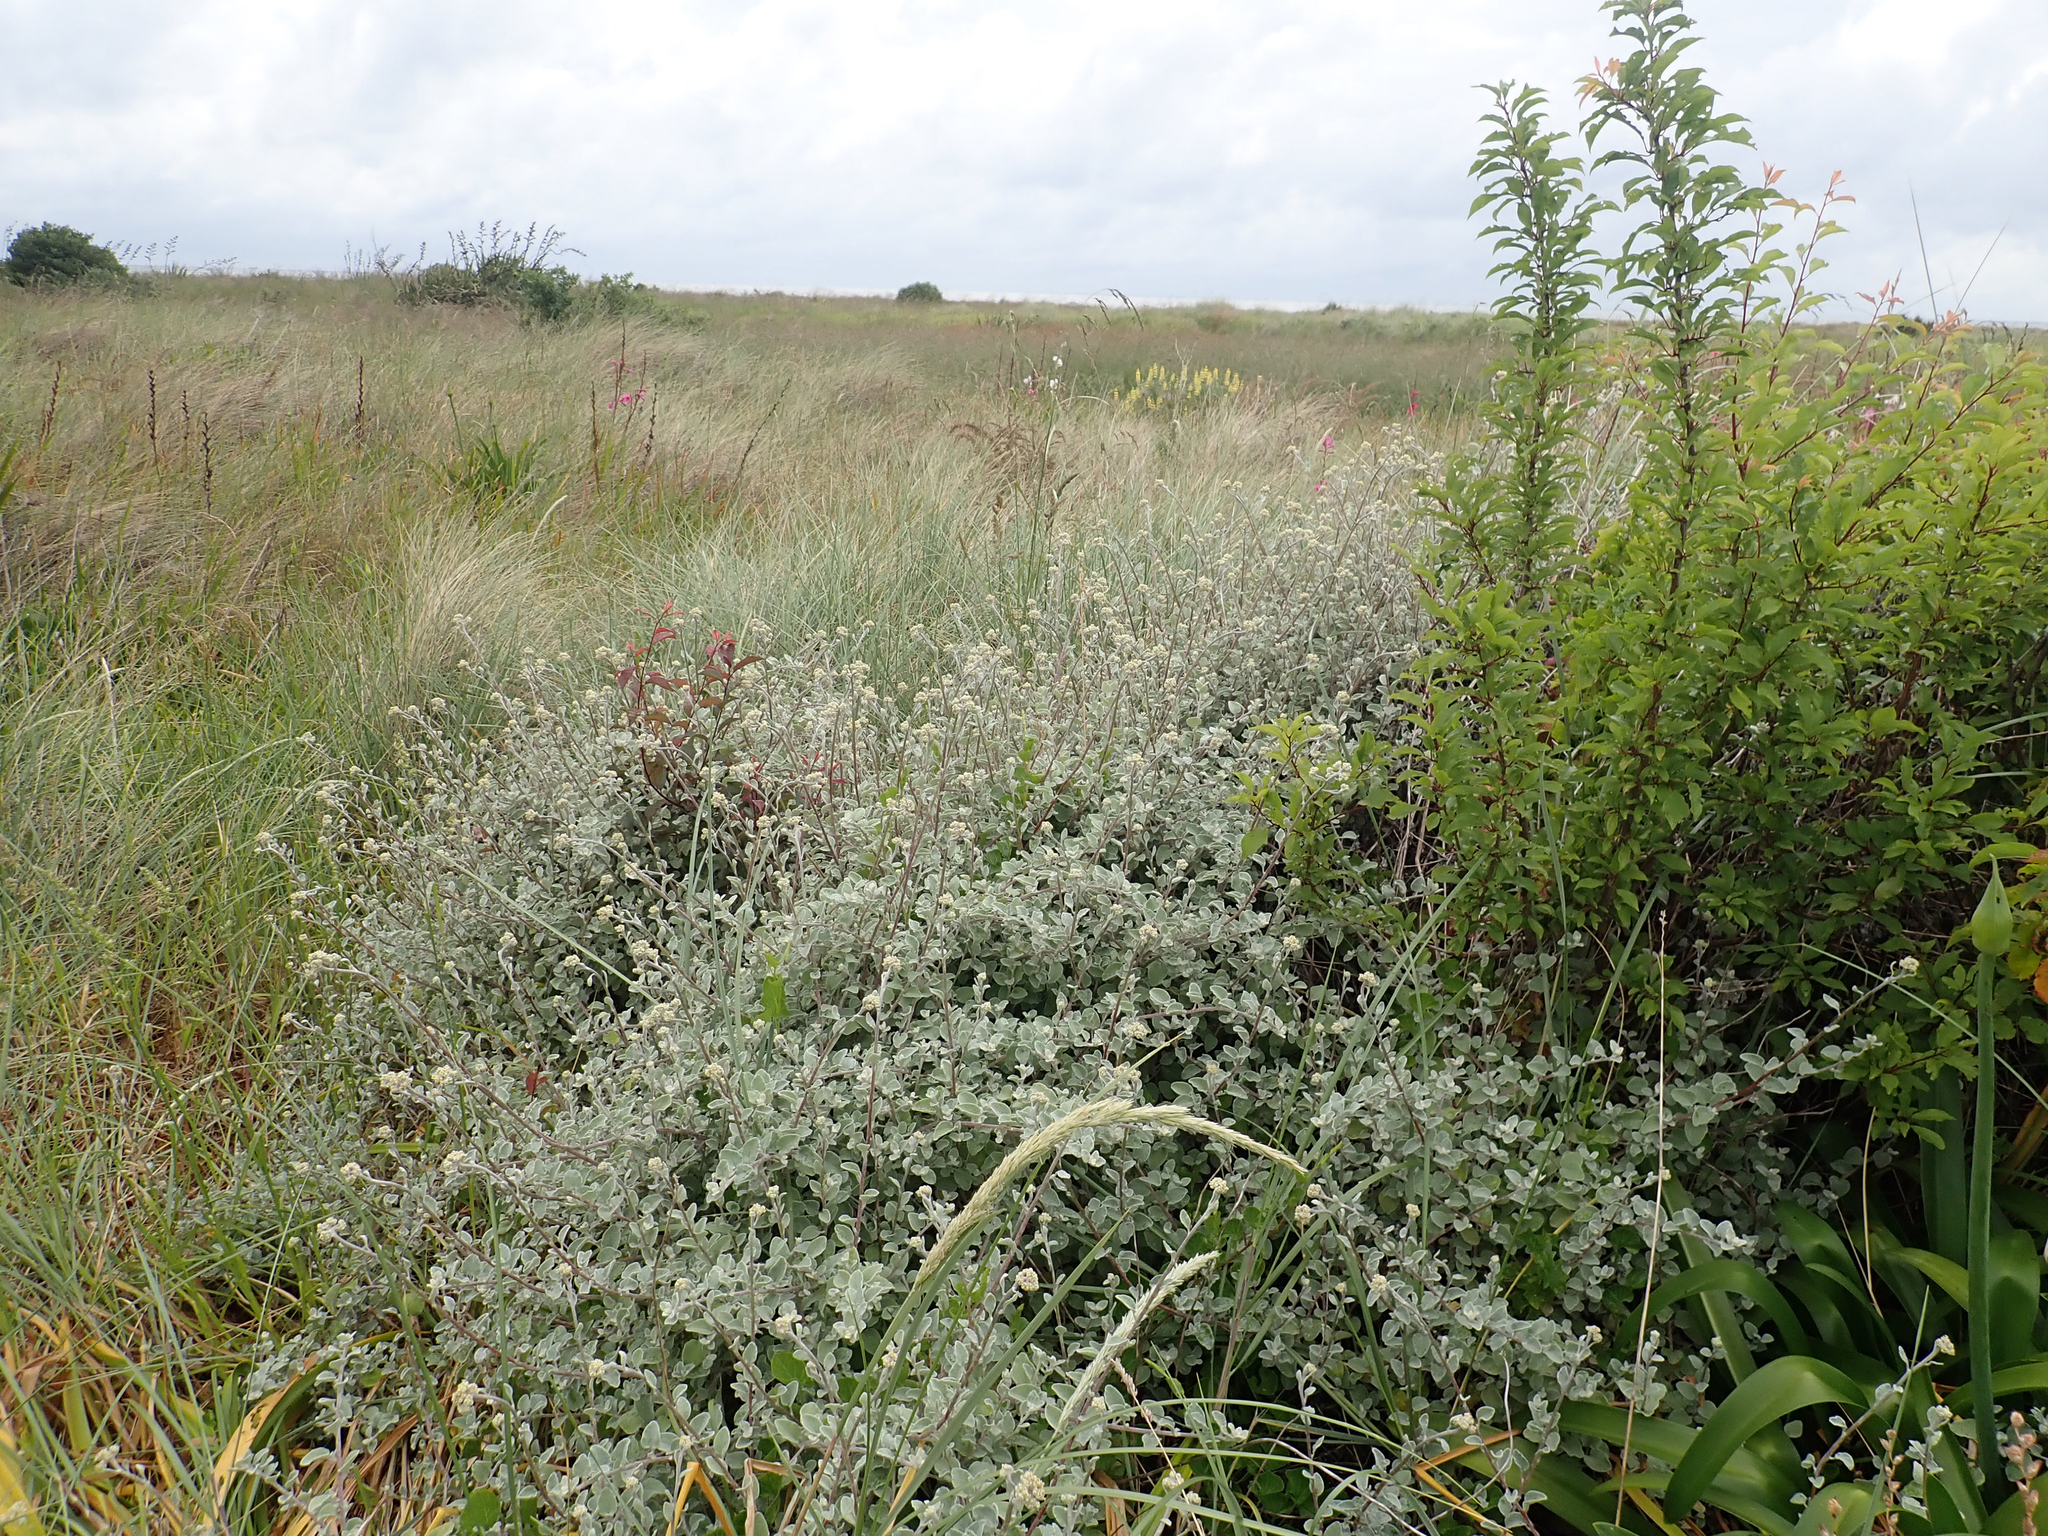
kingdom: Plantae
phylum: Tracheophyta
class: Magnoliopsida
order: Asterales
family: Asteraceae
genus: Helichrysum
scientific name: Helichrysum petiolare
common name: Licorice-plant
